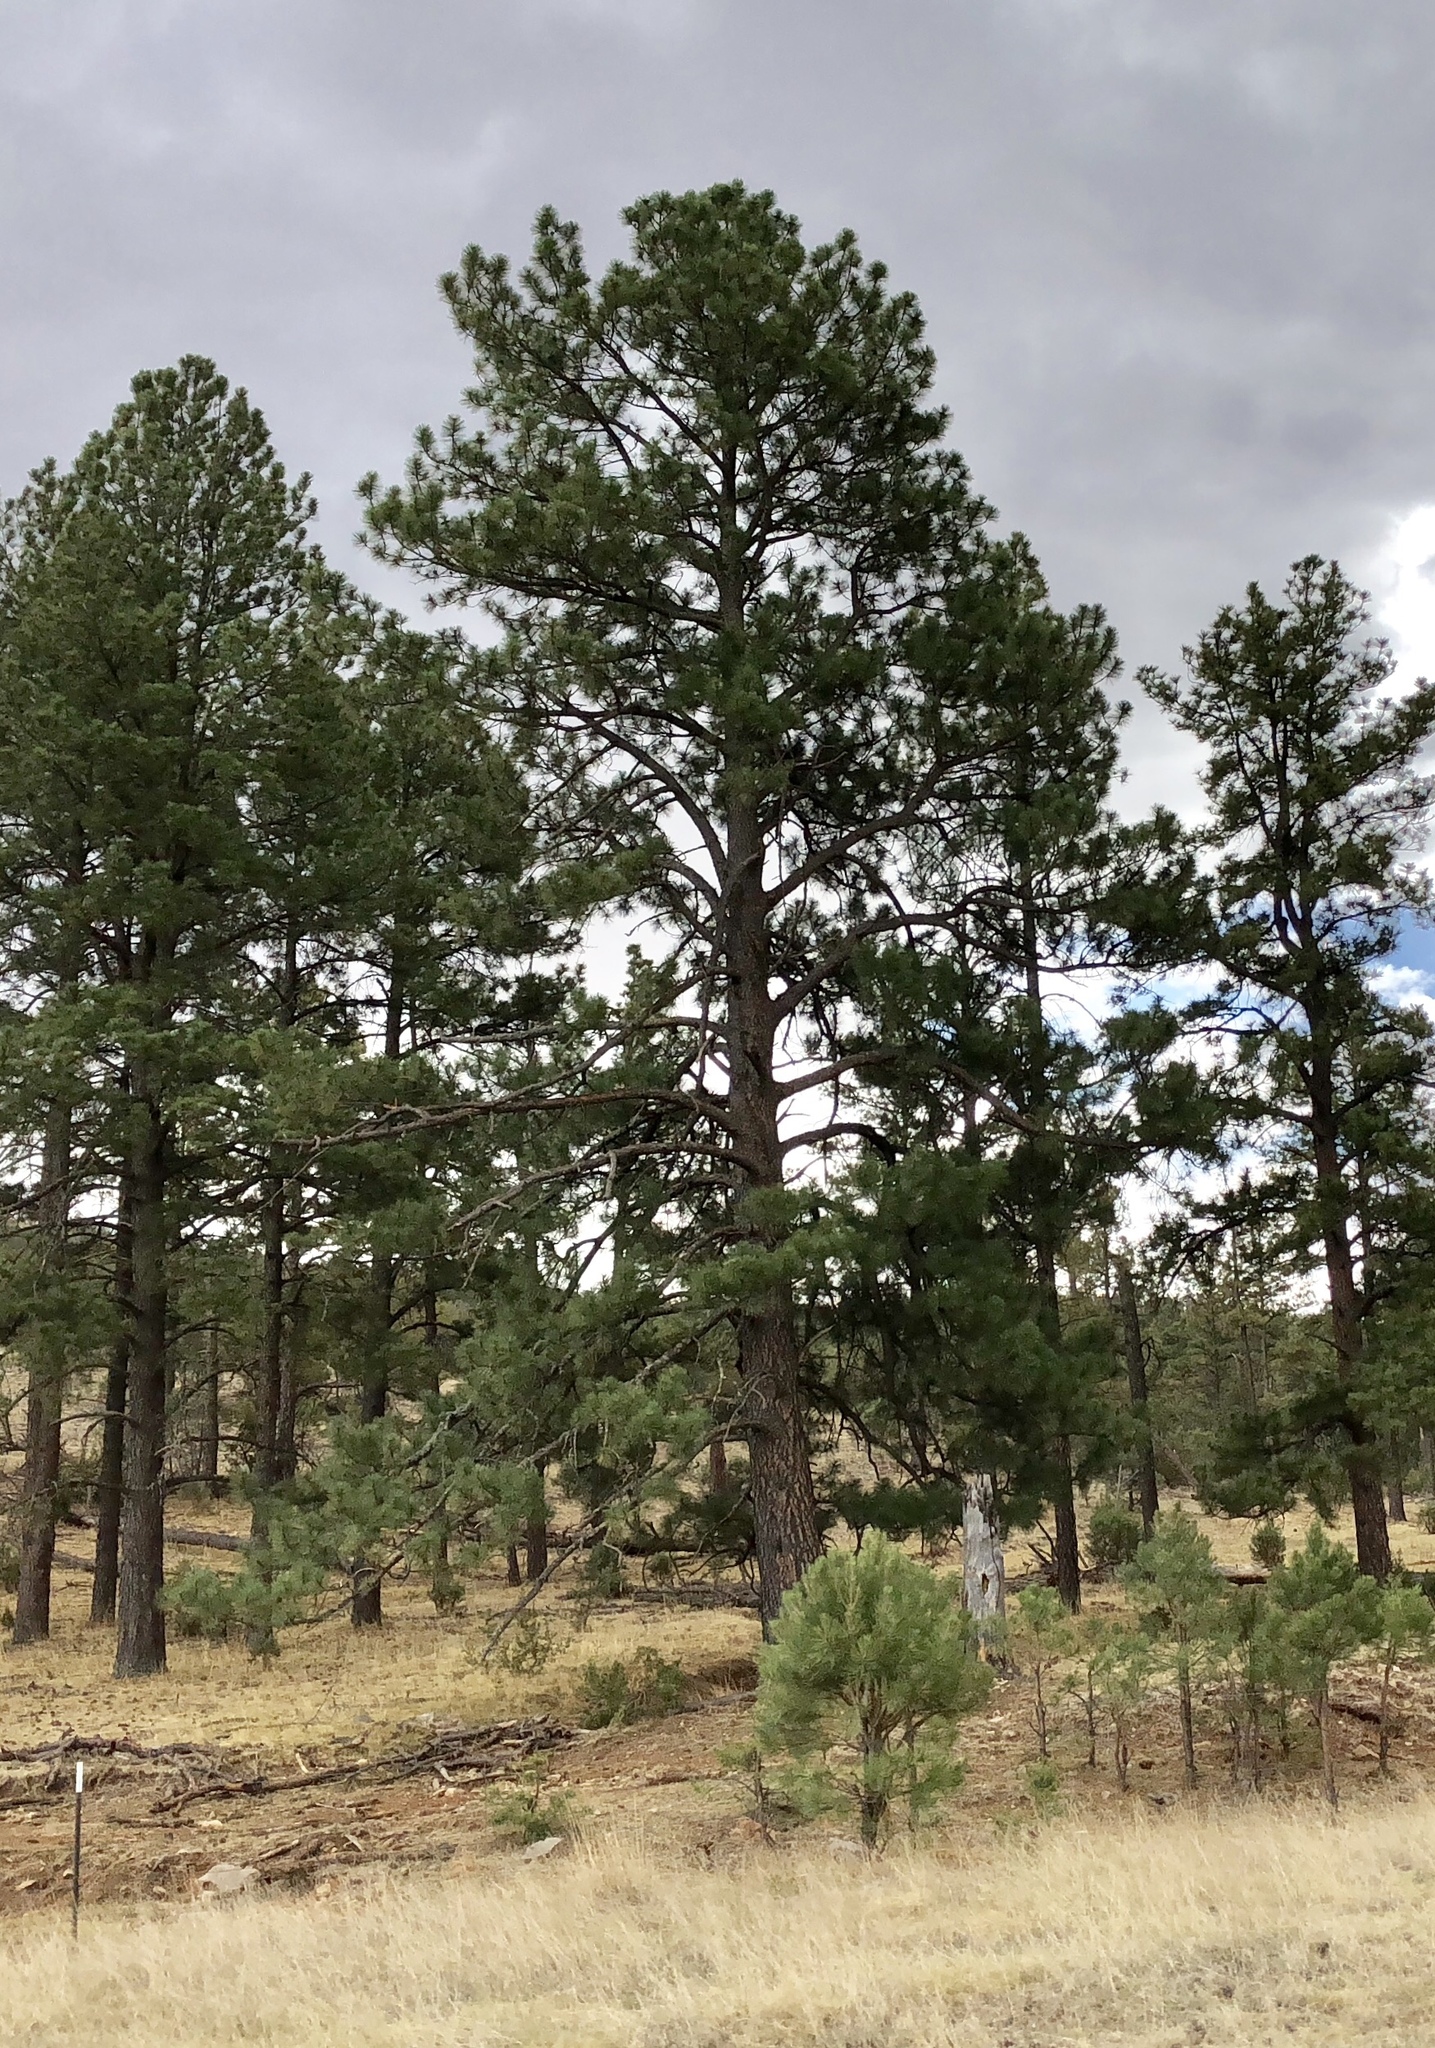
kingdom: Plantae
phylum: Tracheophyta
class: Pinopsida
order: Pinales
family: Pinaceae
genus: Pinus
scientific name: Pinus ponderosa
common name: Western yellow-pine
